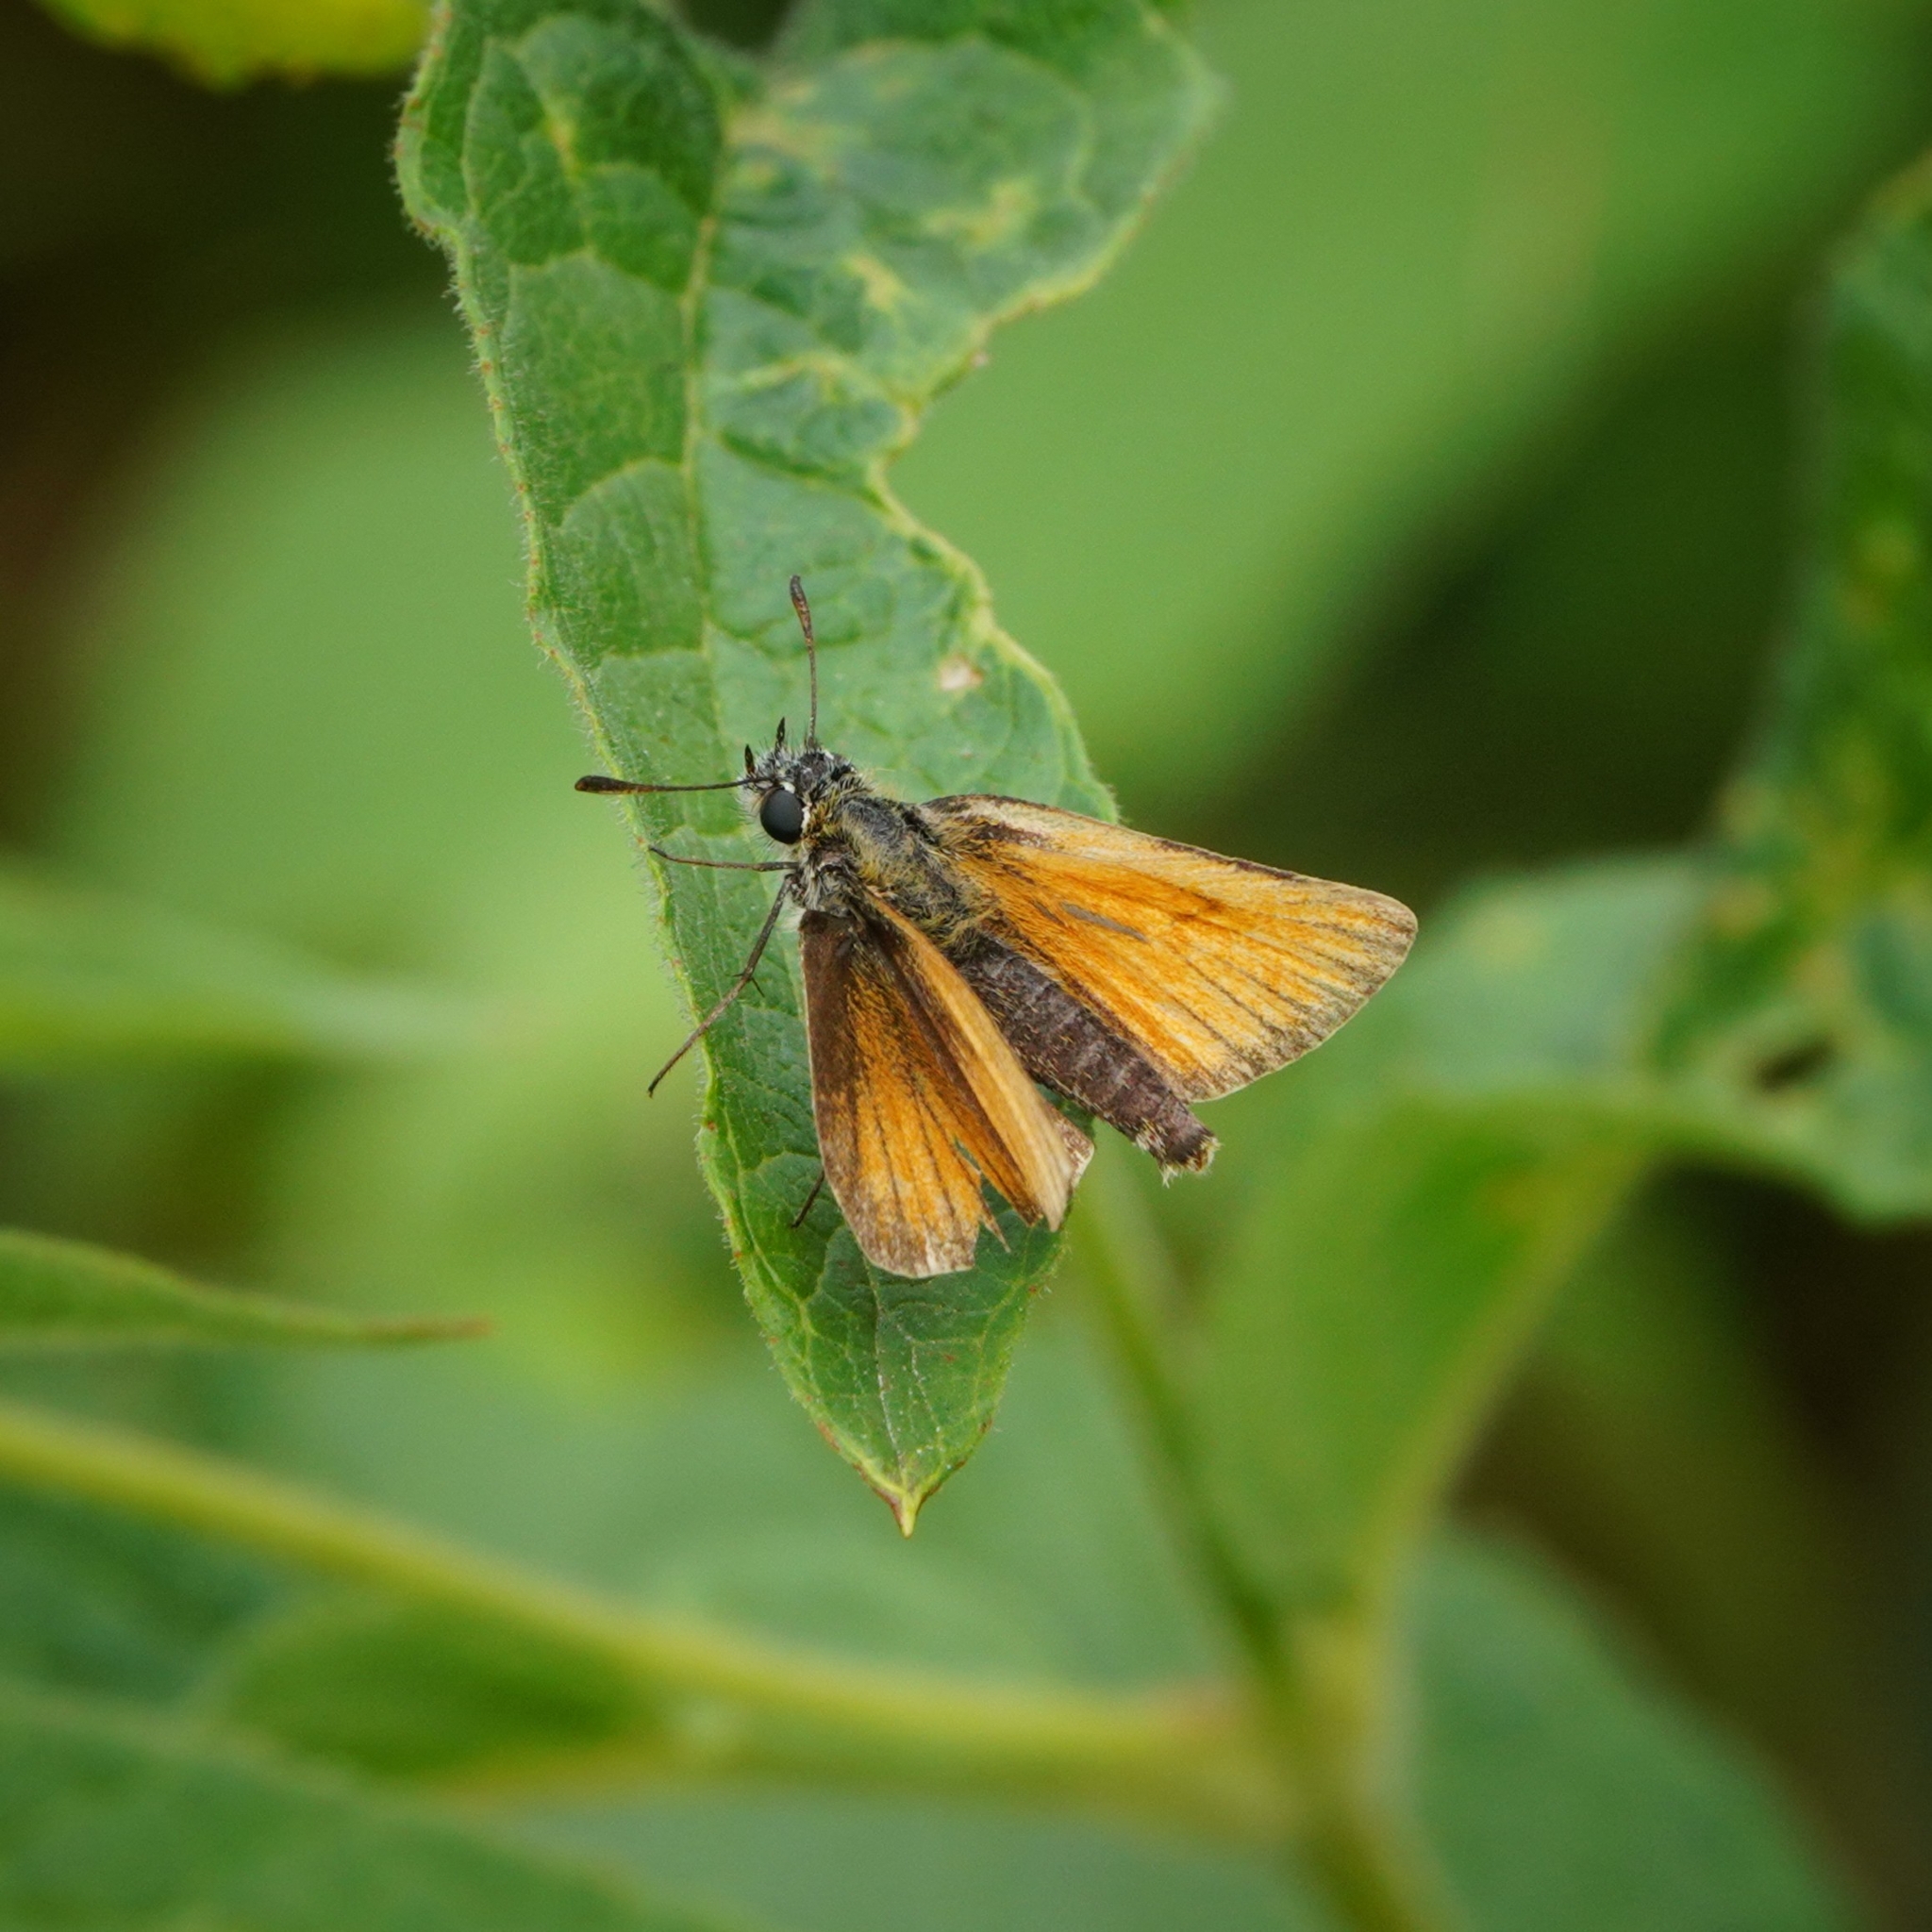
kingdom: Animalia
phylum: Arthropoda
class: Insecta
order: Lepidoptera
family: Hesperiidae
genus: Thymelicus
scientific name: Thymelicus lineola
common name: Essex skipper
